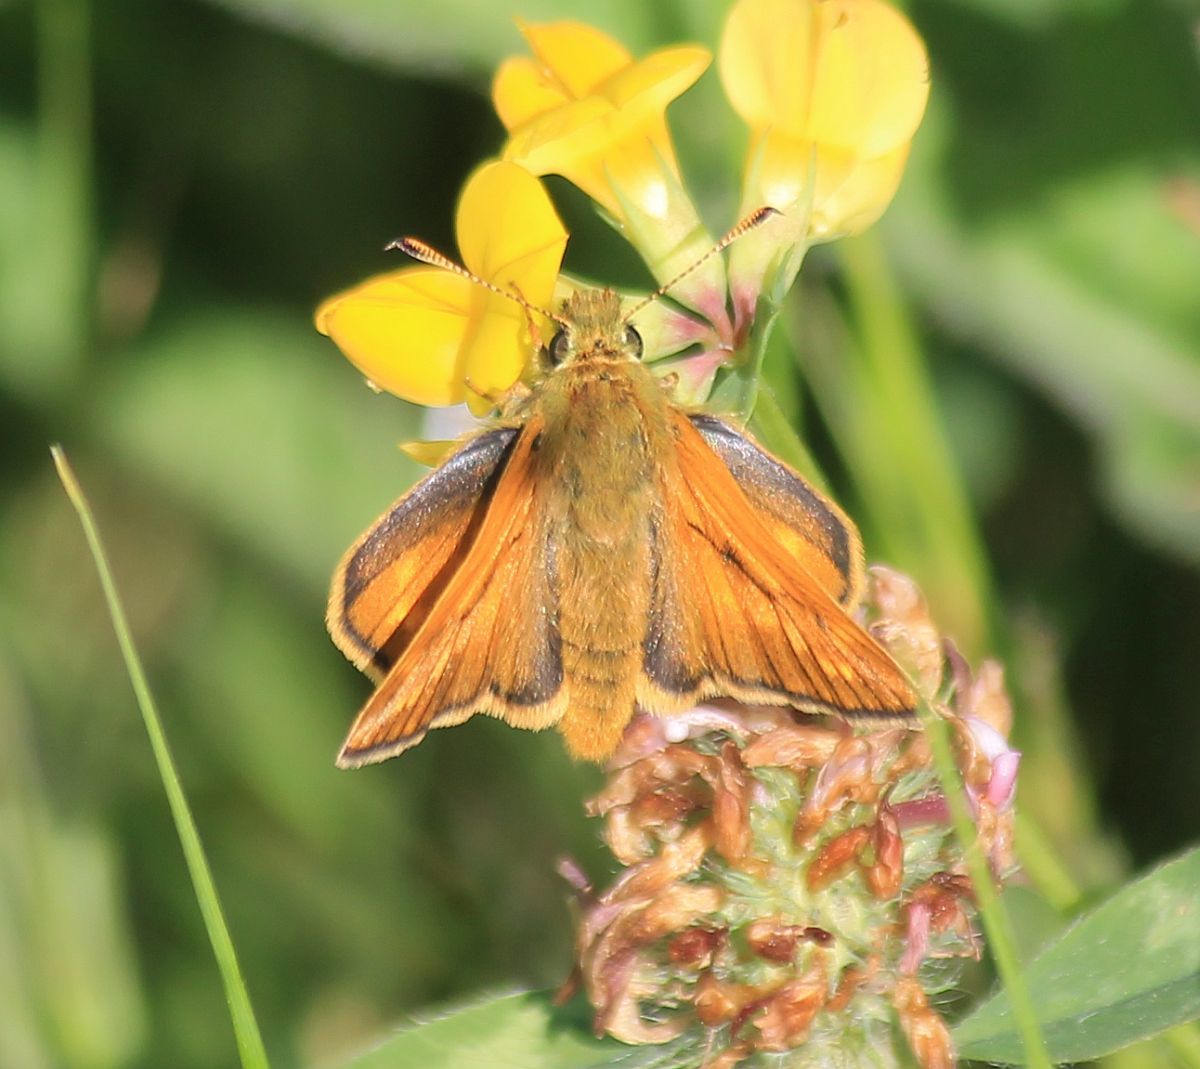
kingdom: Animalia
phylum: Arthropoda
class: Insecta
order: Lepidoptera
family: Hesperiidae
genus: Ochlodes
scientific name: Ochlodes venata
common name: Large skipper
